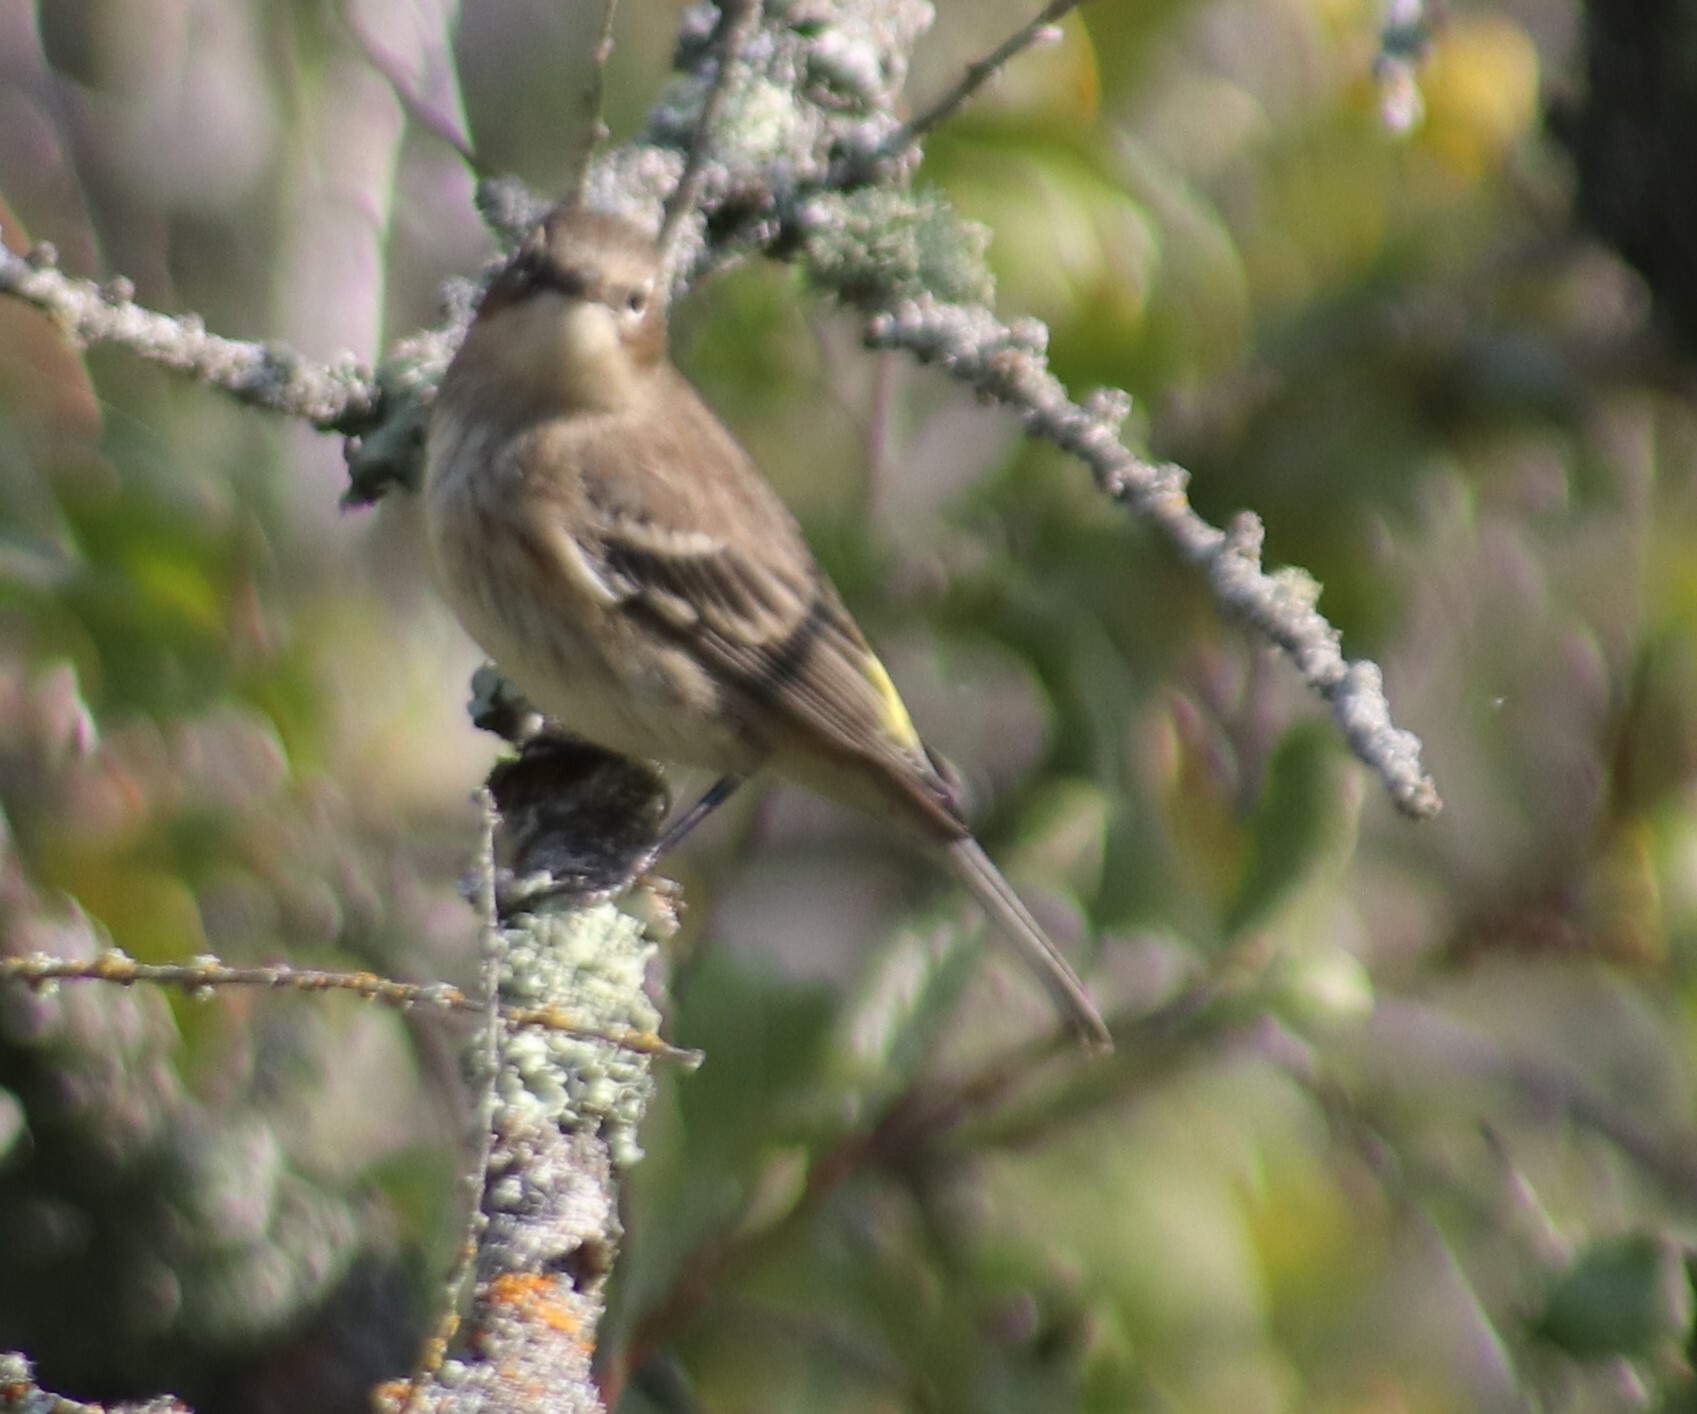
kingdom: Animalia
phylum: Chordata
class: Aves
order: Passeriformes
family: Parulidae
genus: Setophaga
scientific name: Setophaga coronata
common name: Myrtle warbler
